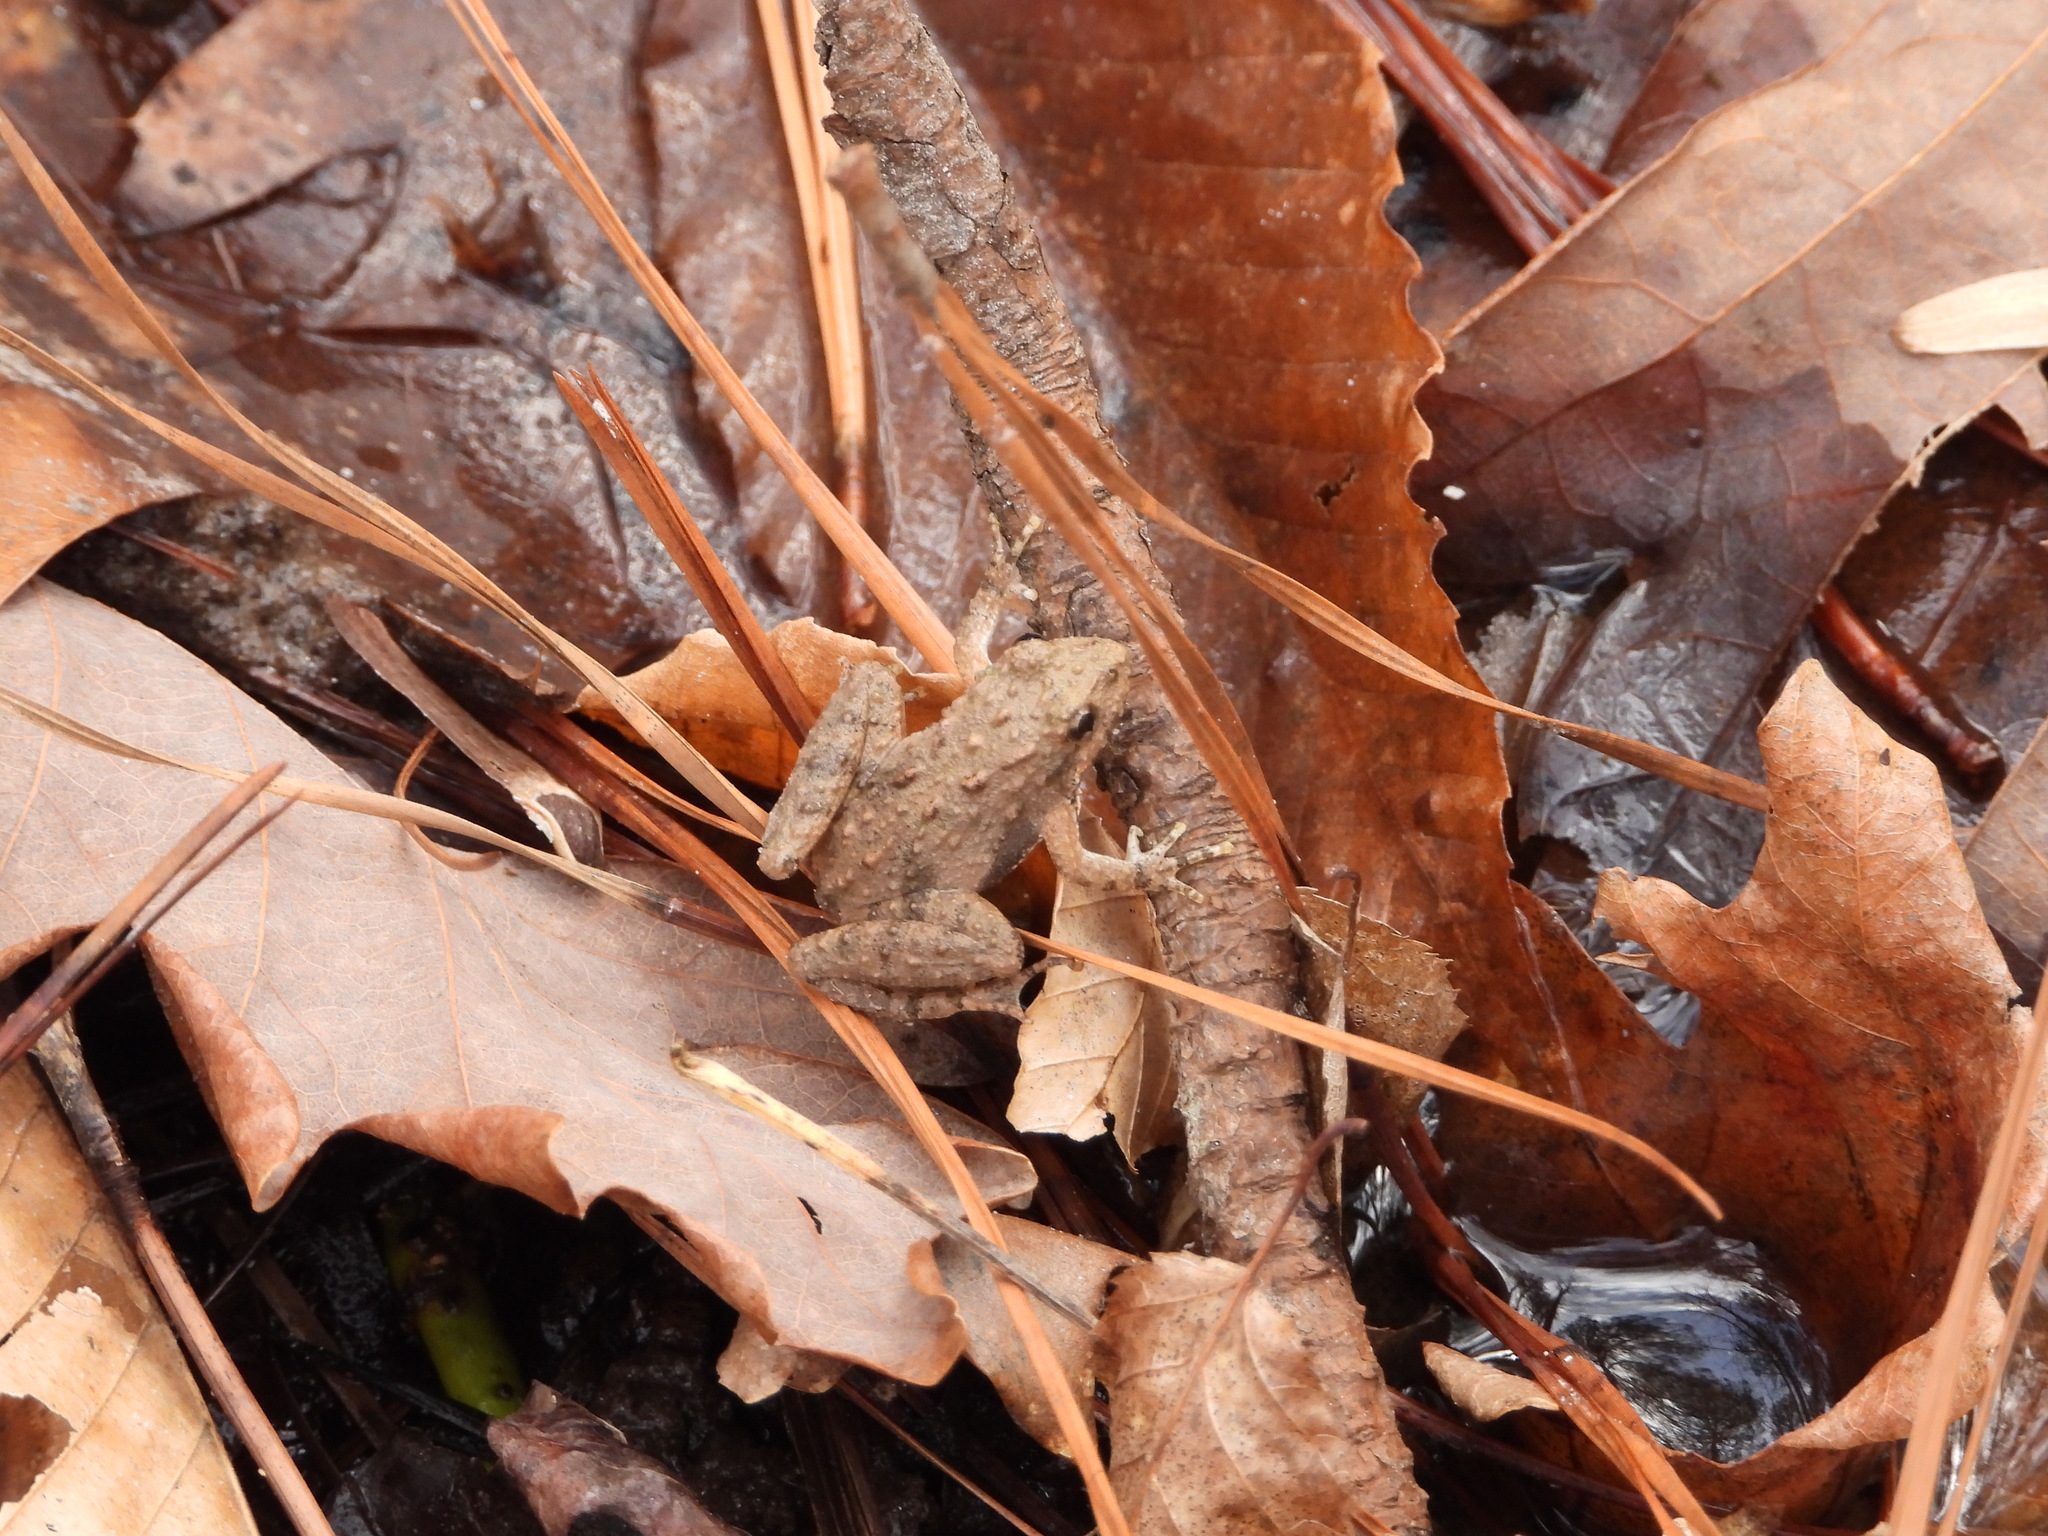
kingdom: Animalia
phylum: Chordata
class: Amphibia
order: Anura
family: Hylidae
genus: Acris
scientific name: Acris crepitans
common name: Northern cricket frog
